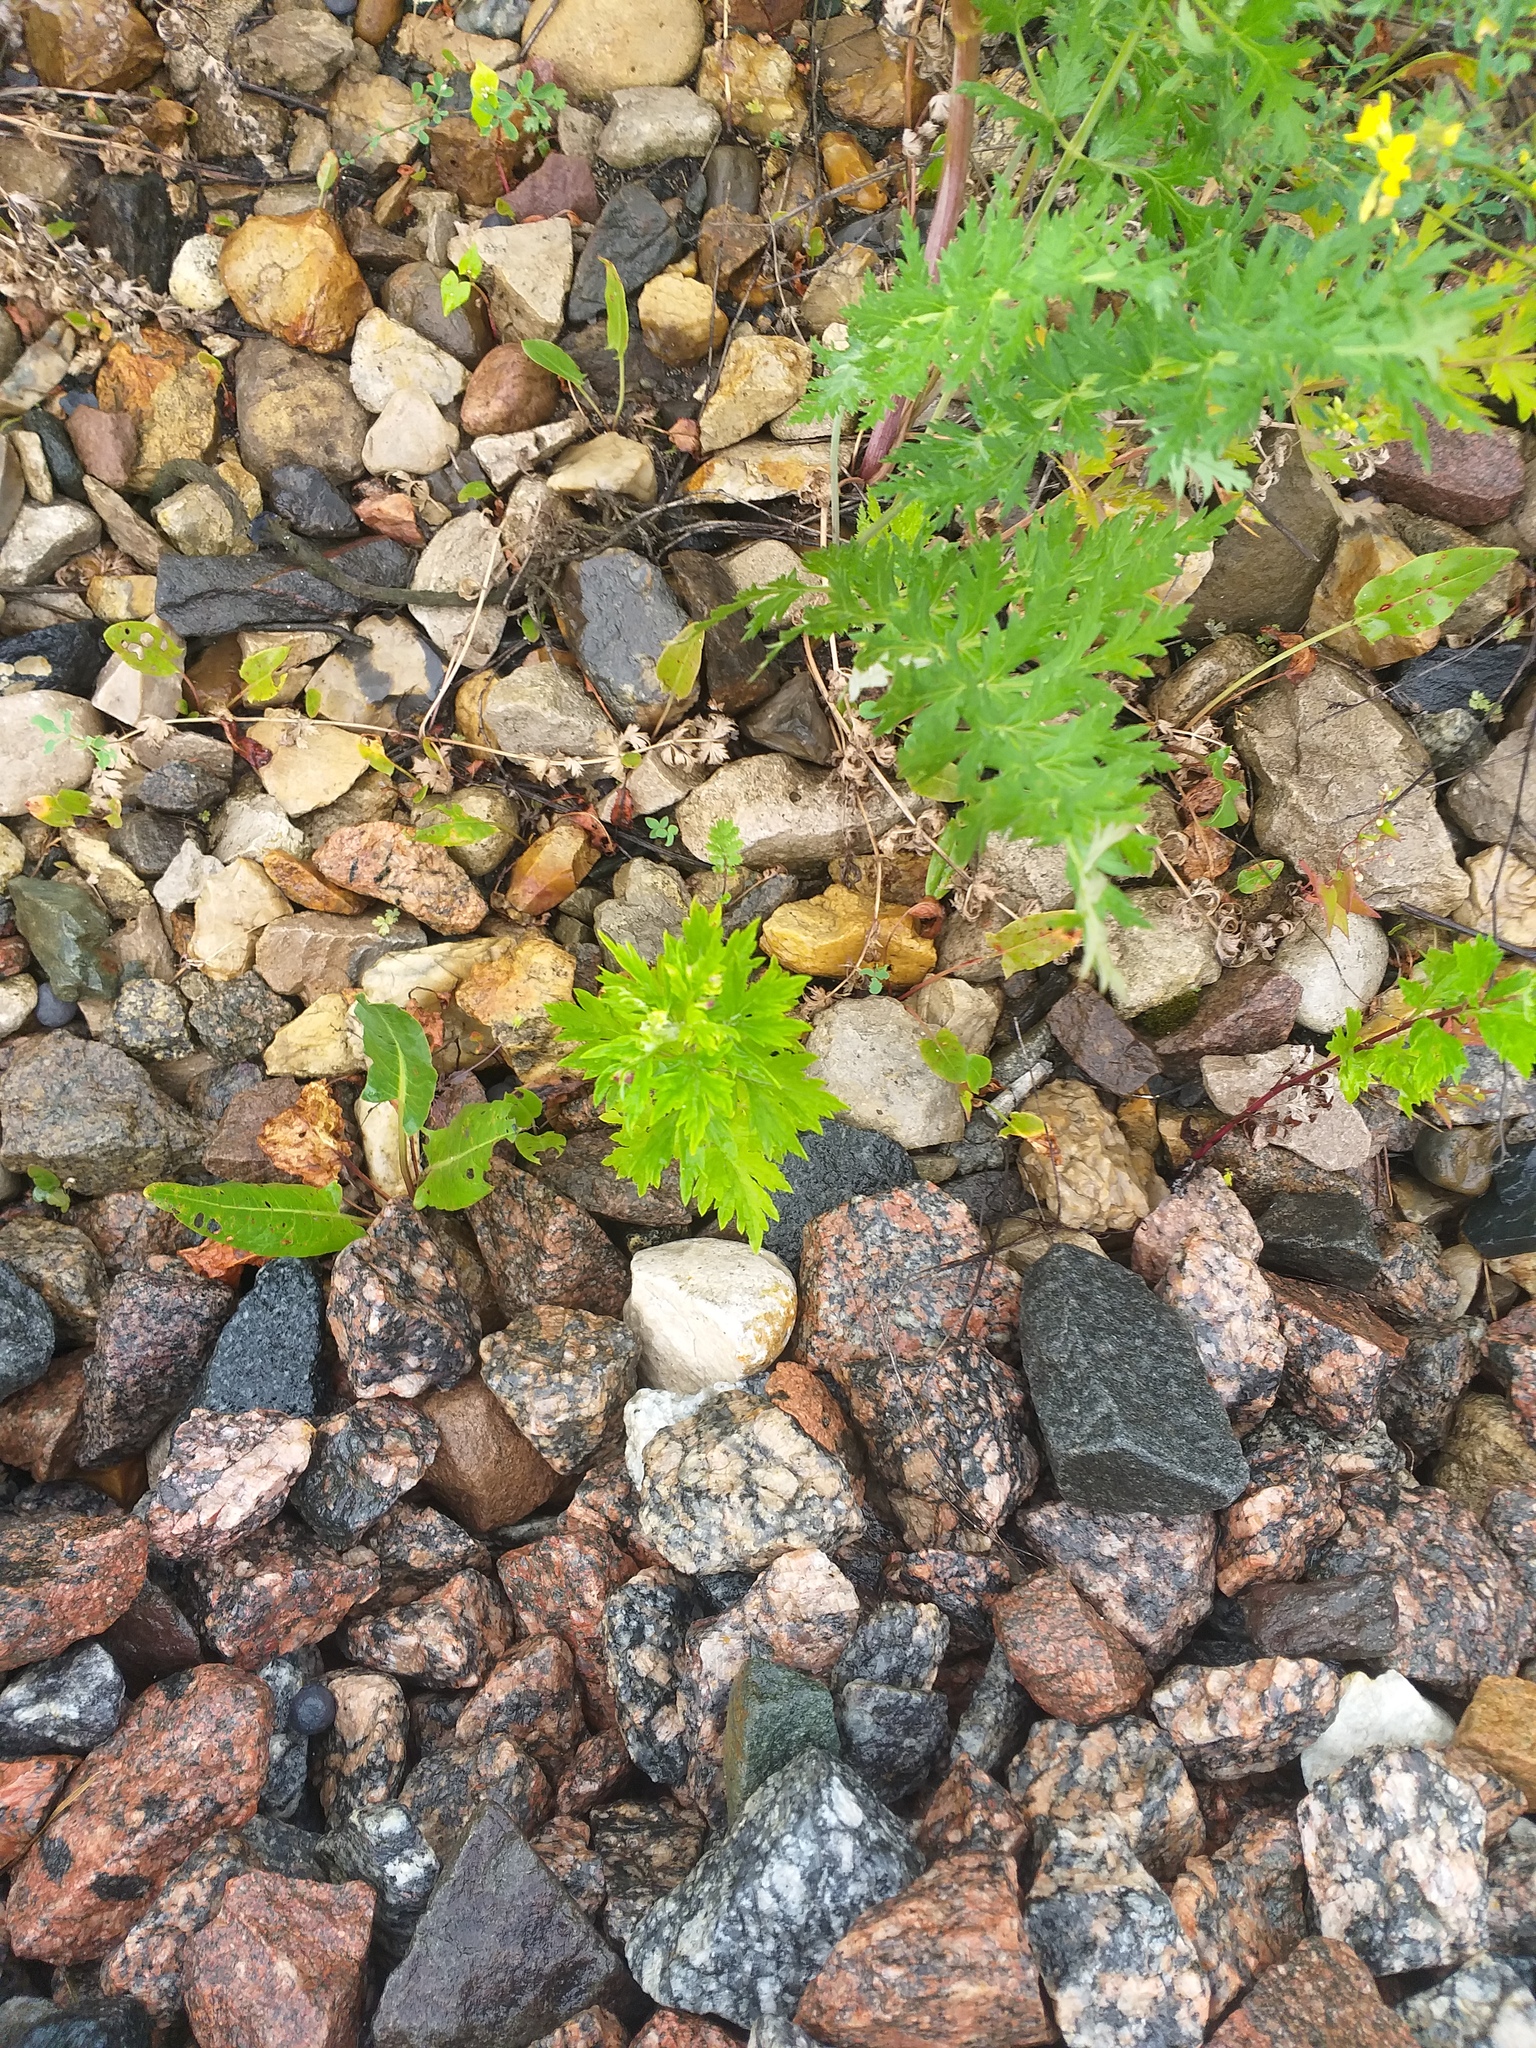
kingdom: Plantae
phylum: Tracheophyta
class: Magnoliopsida
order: Asterales
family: Asteraceae
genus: Artemisia
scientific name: Artemisia vulgaris
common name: Mugwort
